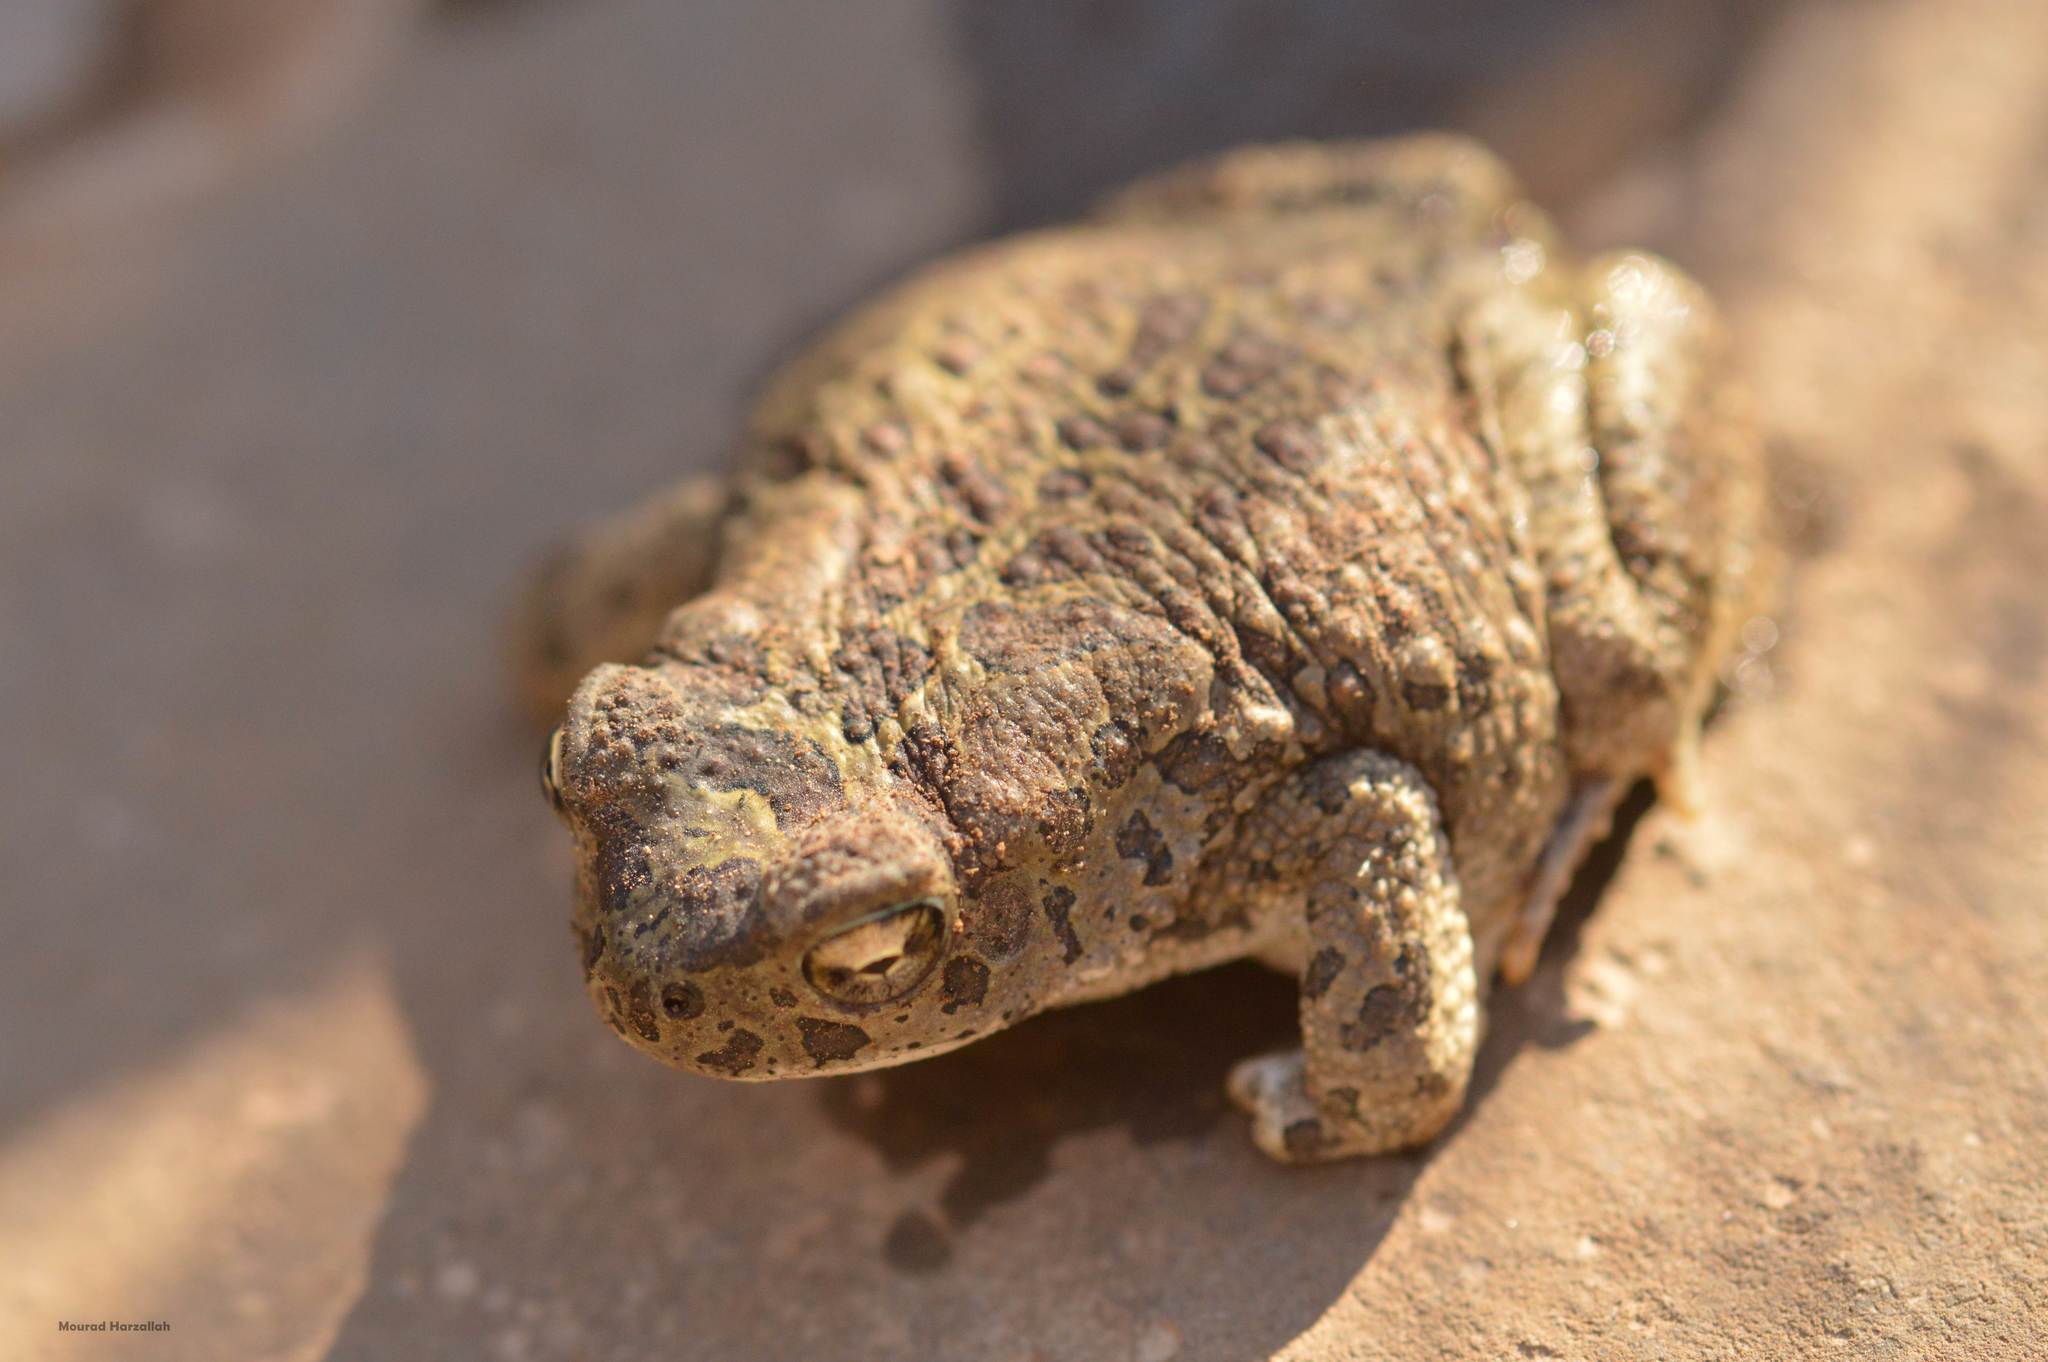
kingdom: Animalia
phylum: Chordata
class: Amphibia
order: Anura
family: Bufonidae
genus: Sclerophrys
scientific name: Sclerophrys mauritanica
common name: Berber toad
